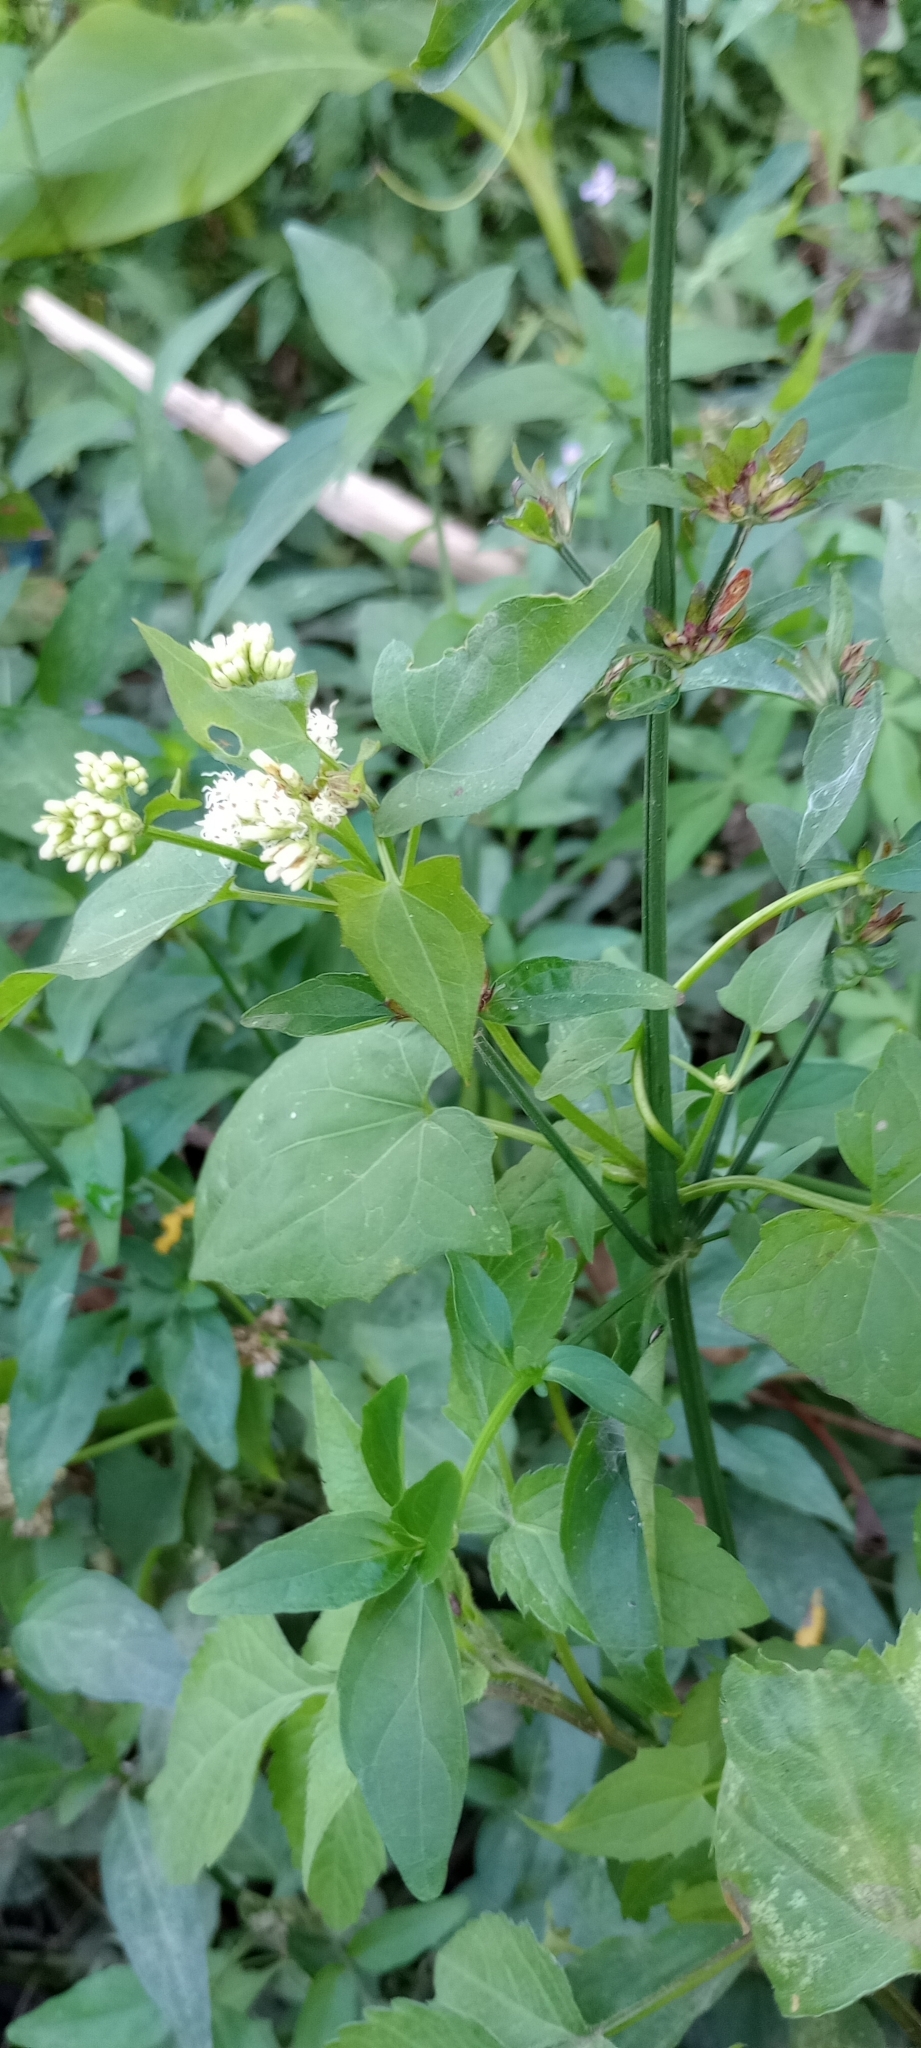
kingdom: Plantae
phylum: Tracheophyta
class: Magnoliopsida
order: Asterales
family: Asteraceae
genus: Mikania
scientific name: Mikania micrantha
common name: Mile-a-minute
